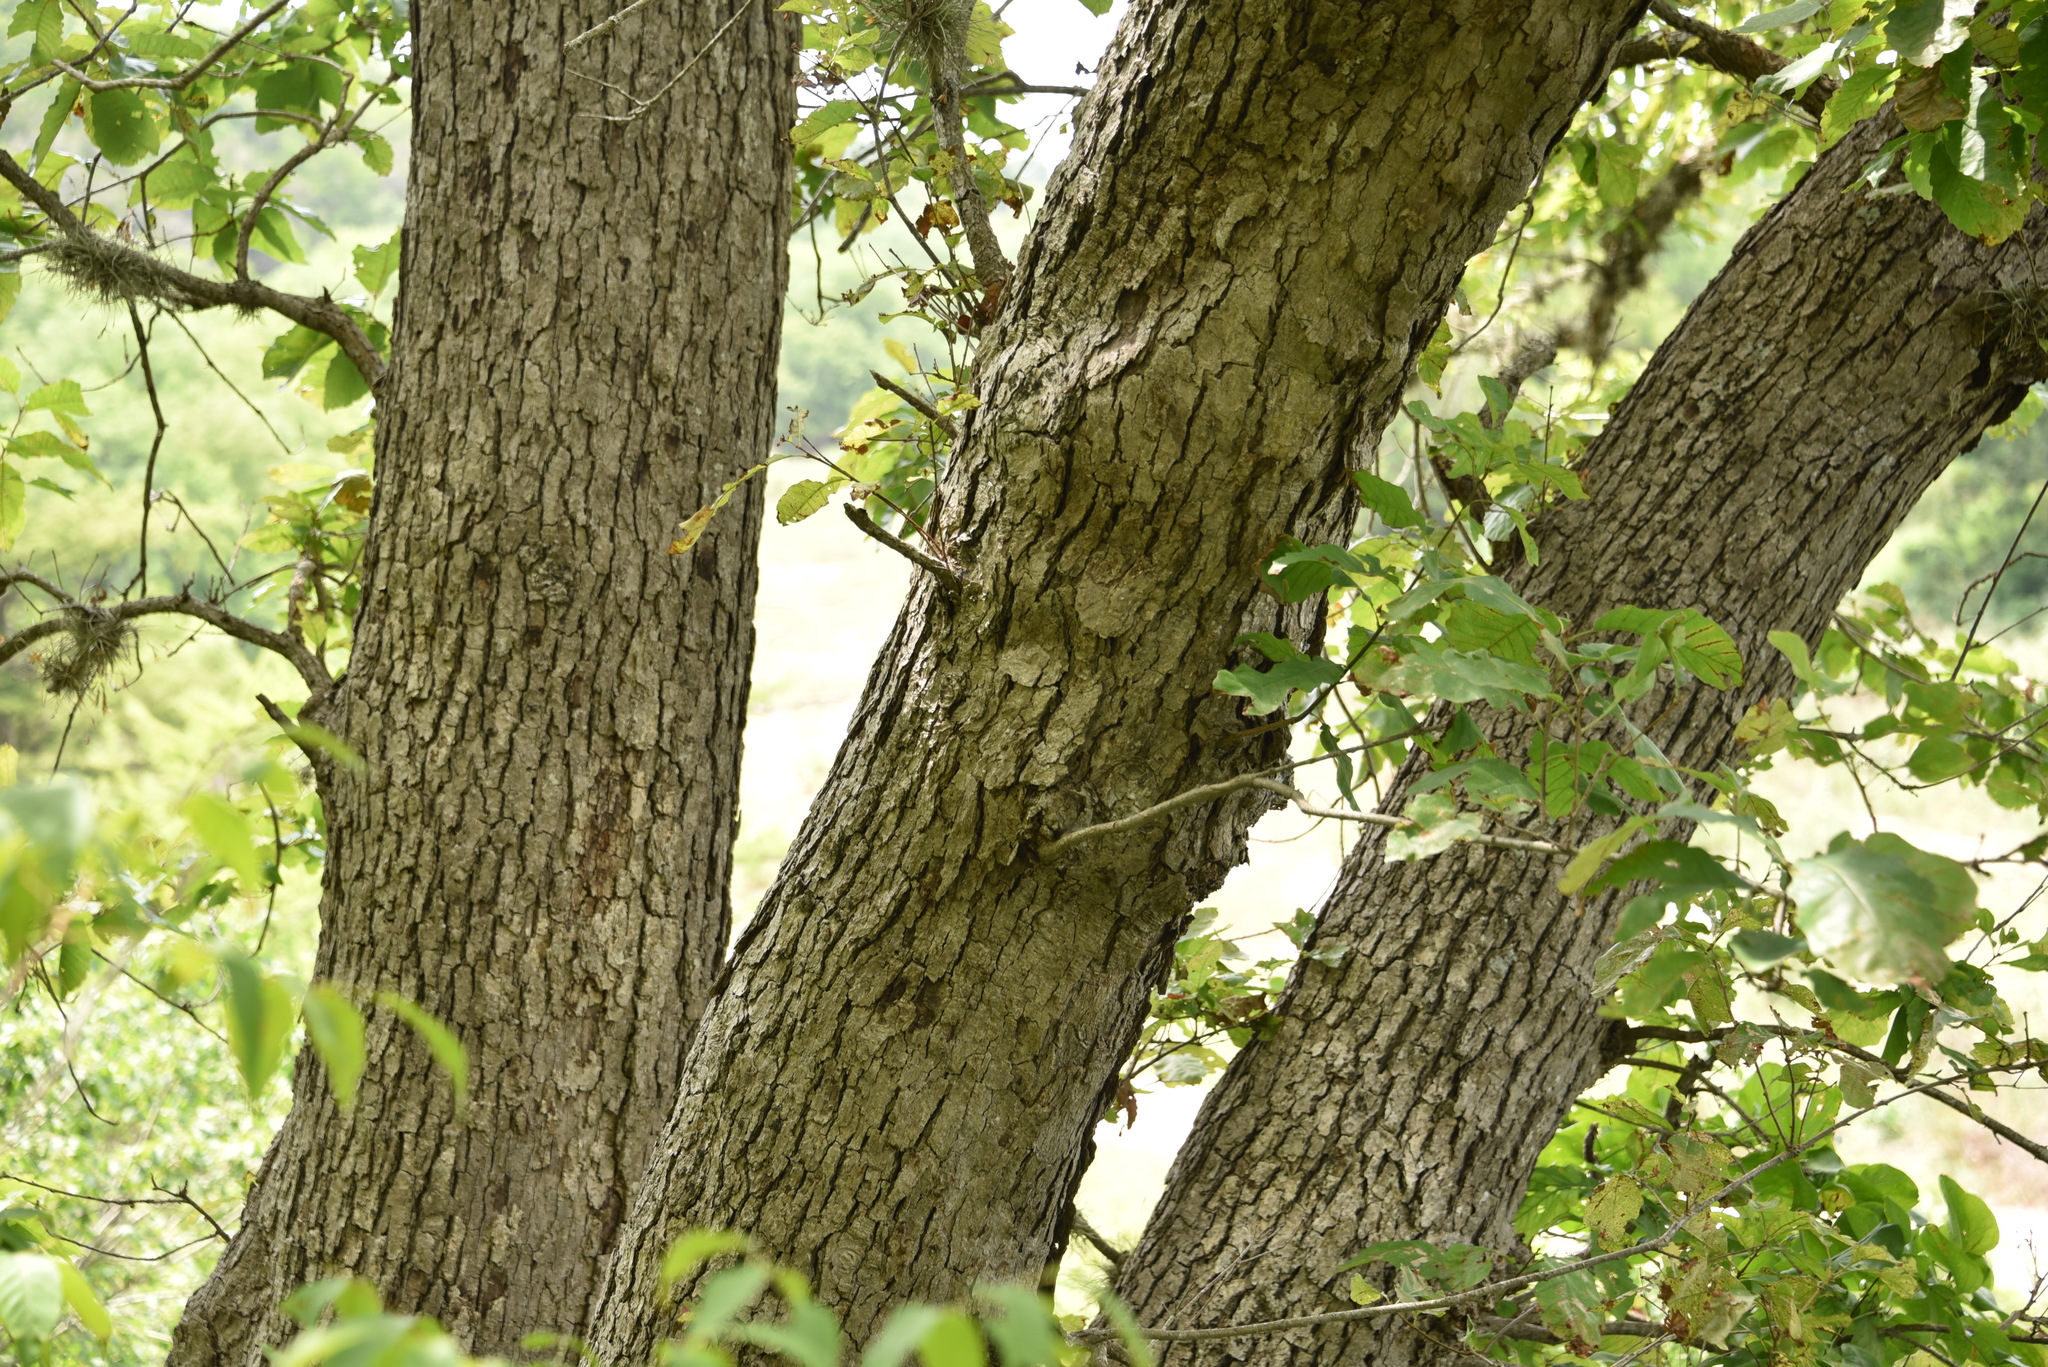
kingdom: Plantae
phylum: Tracheophyta
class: Magnoliopsida
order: Fagales
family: Fagaceae
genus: Quercus
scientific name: Quercus muehlenbergii
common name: Chinkapin oak
